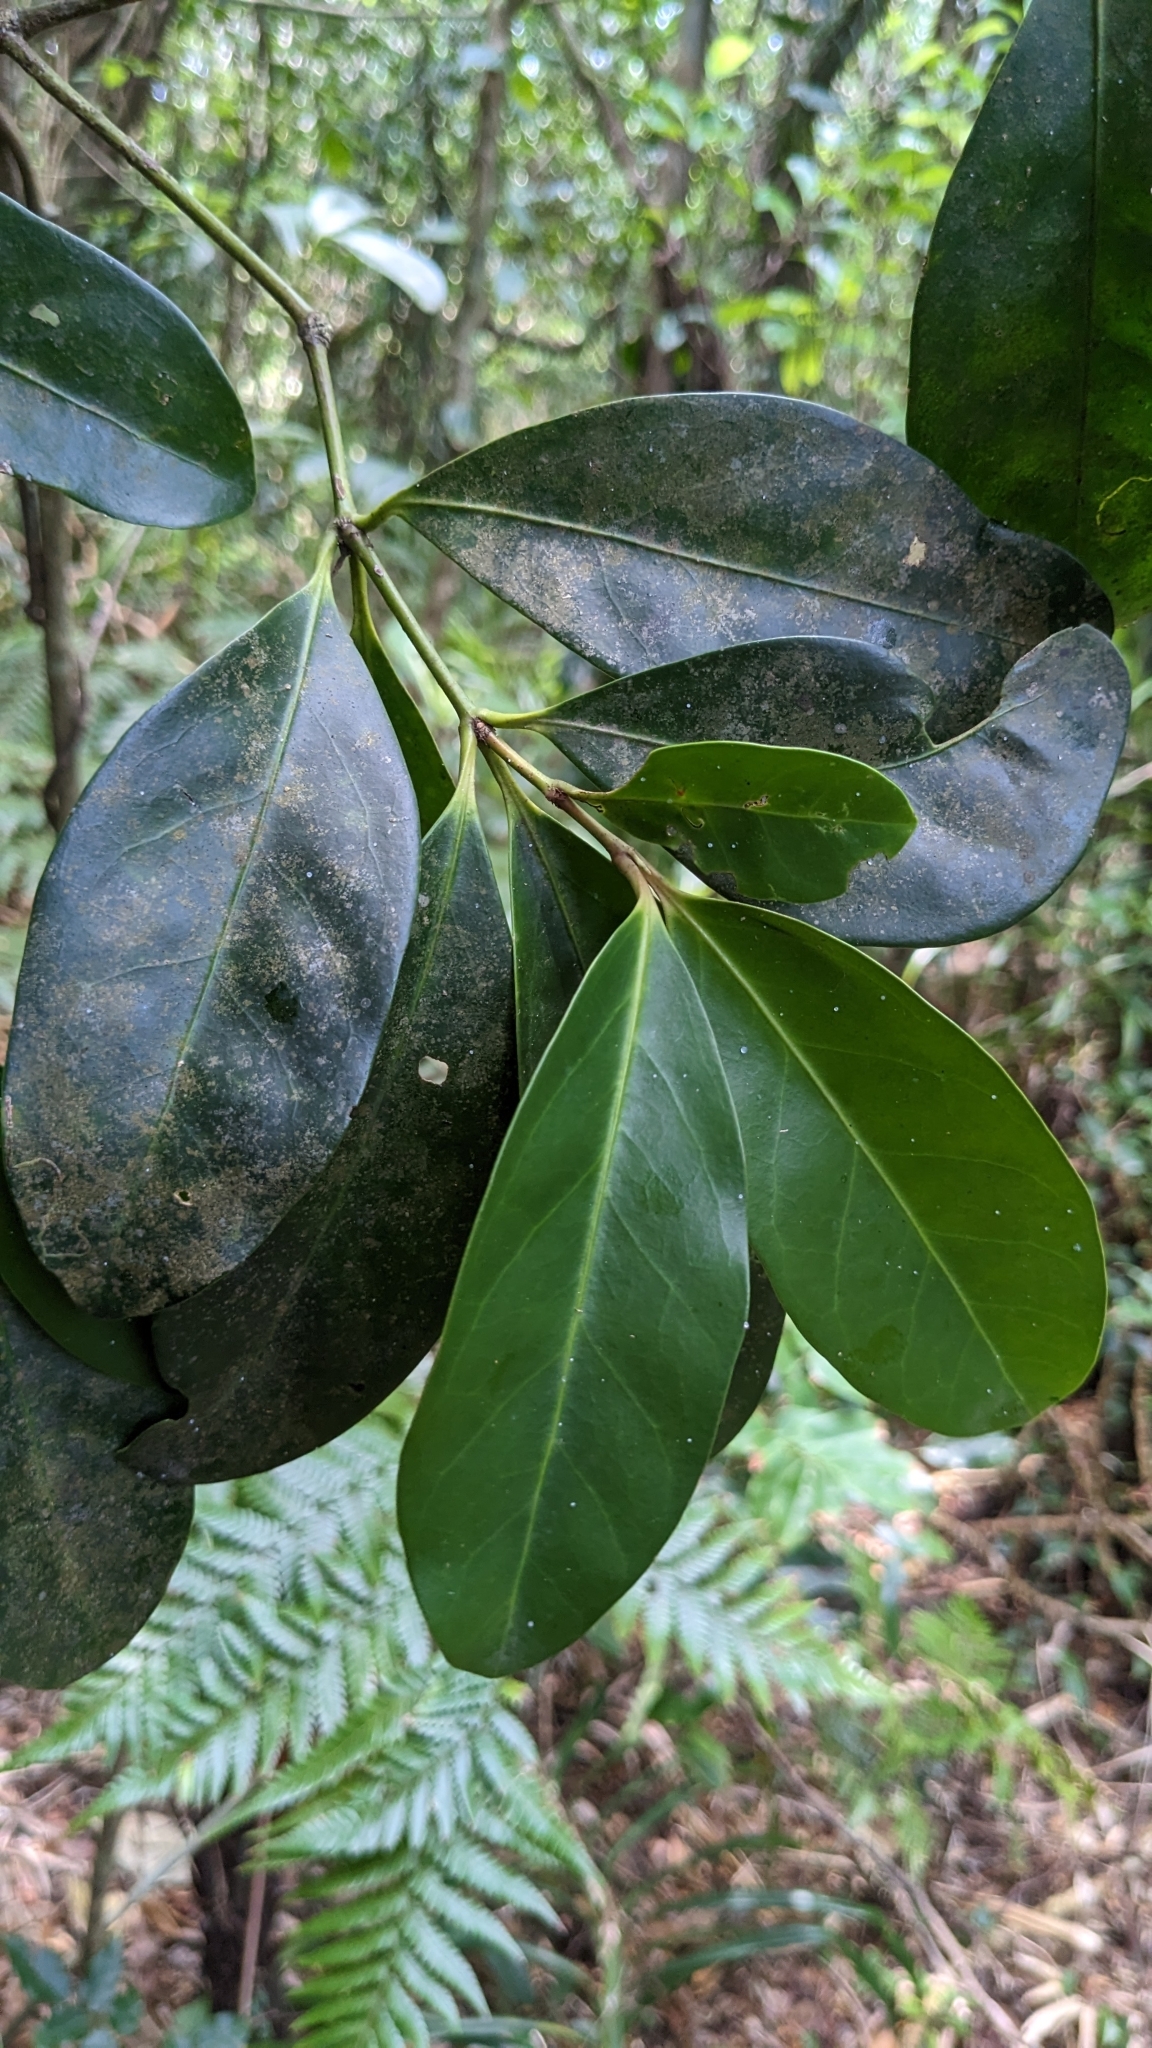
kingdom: Plantae
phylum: Tracheophyta
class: Magnoliopsida
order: Celastrales
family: Celastraceae
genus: Euonymus
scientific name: Euonymus cochinchinensis
